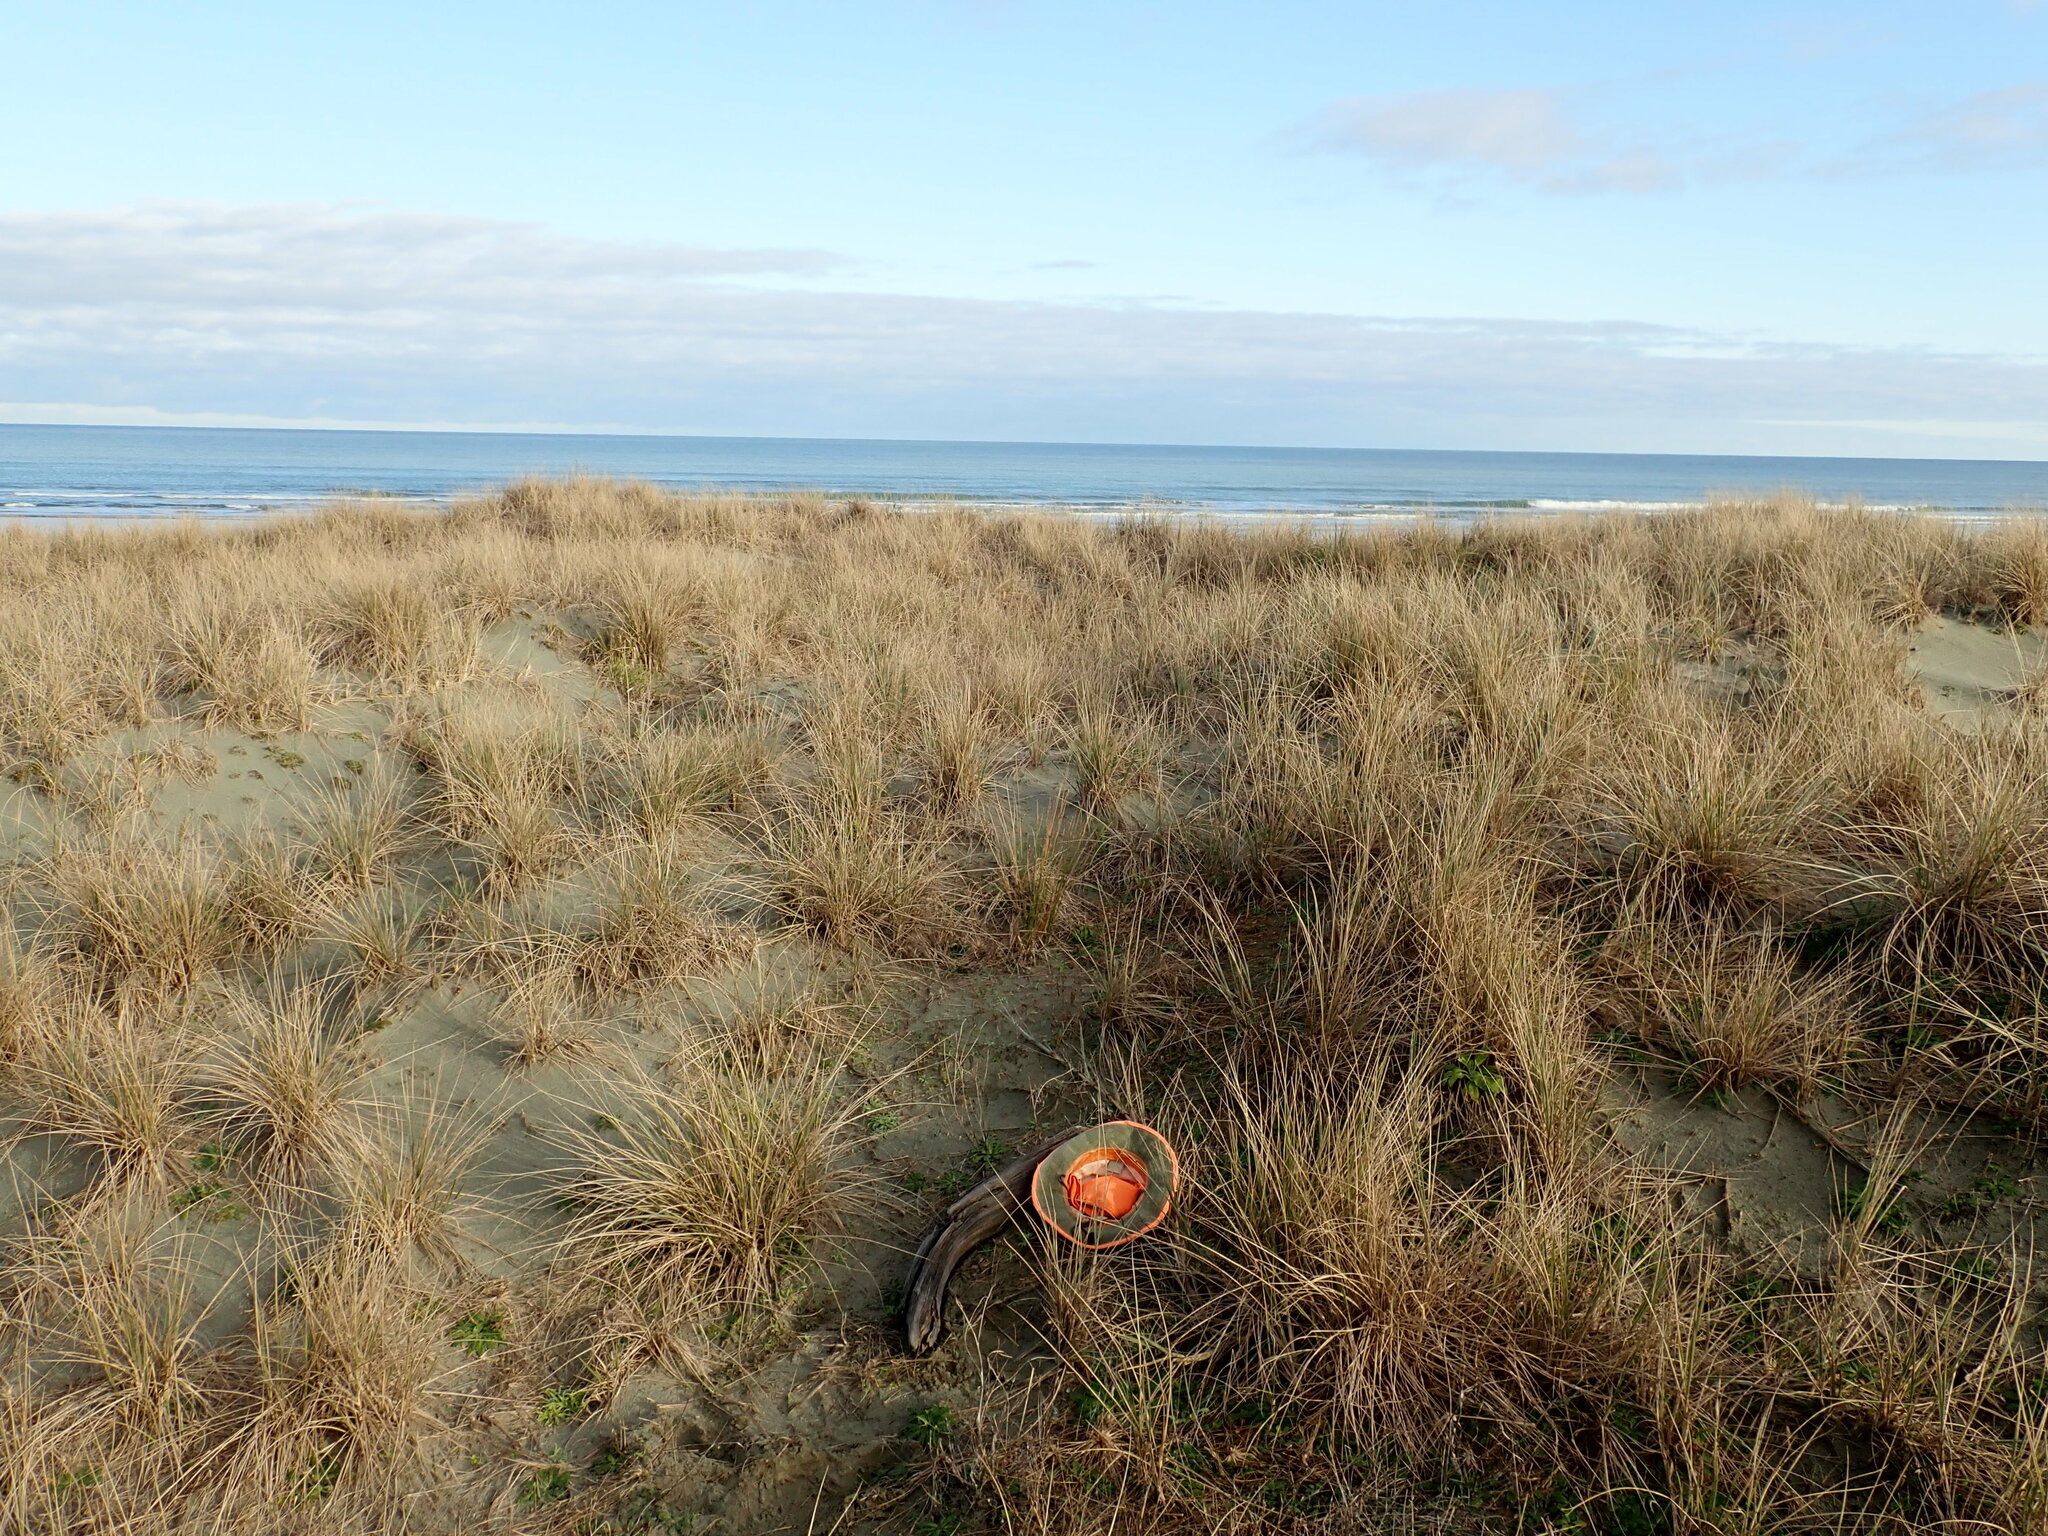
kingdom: Animalia
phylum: Arthropoda
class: Insecta
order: Dermaptera
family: Forficulidae
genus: Forficula
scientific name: Forficula
